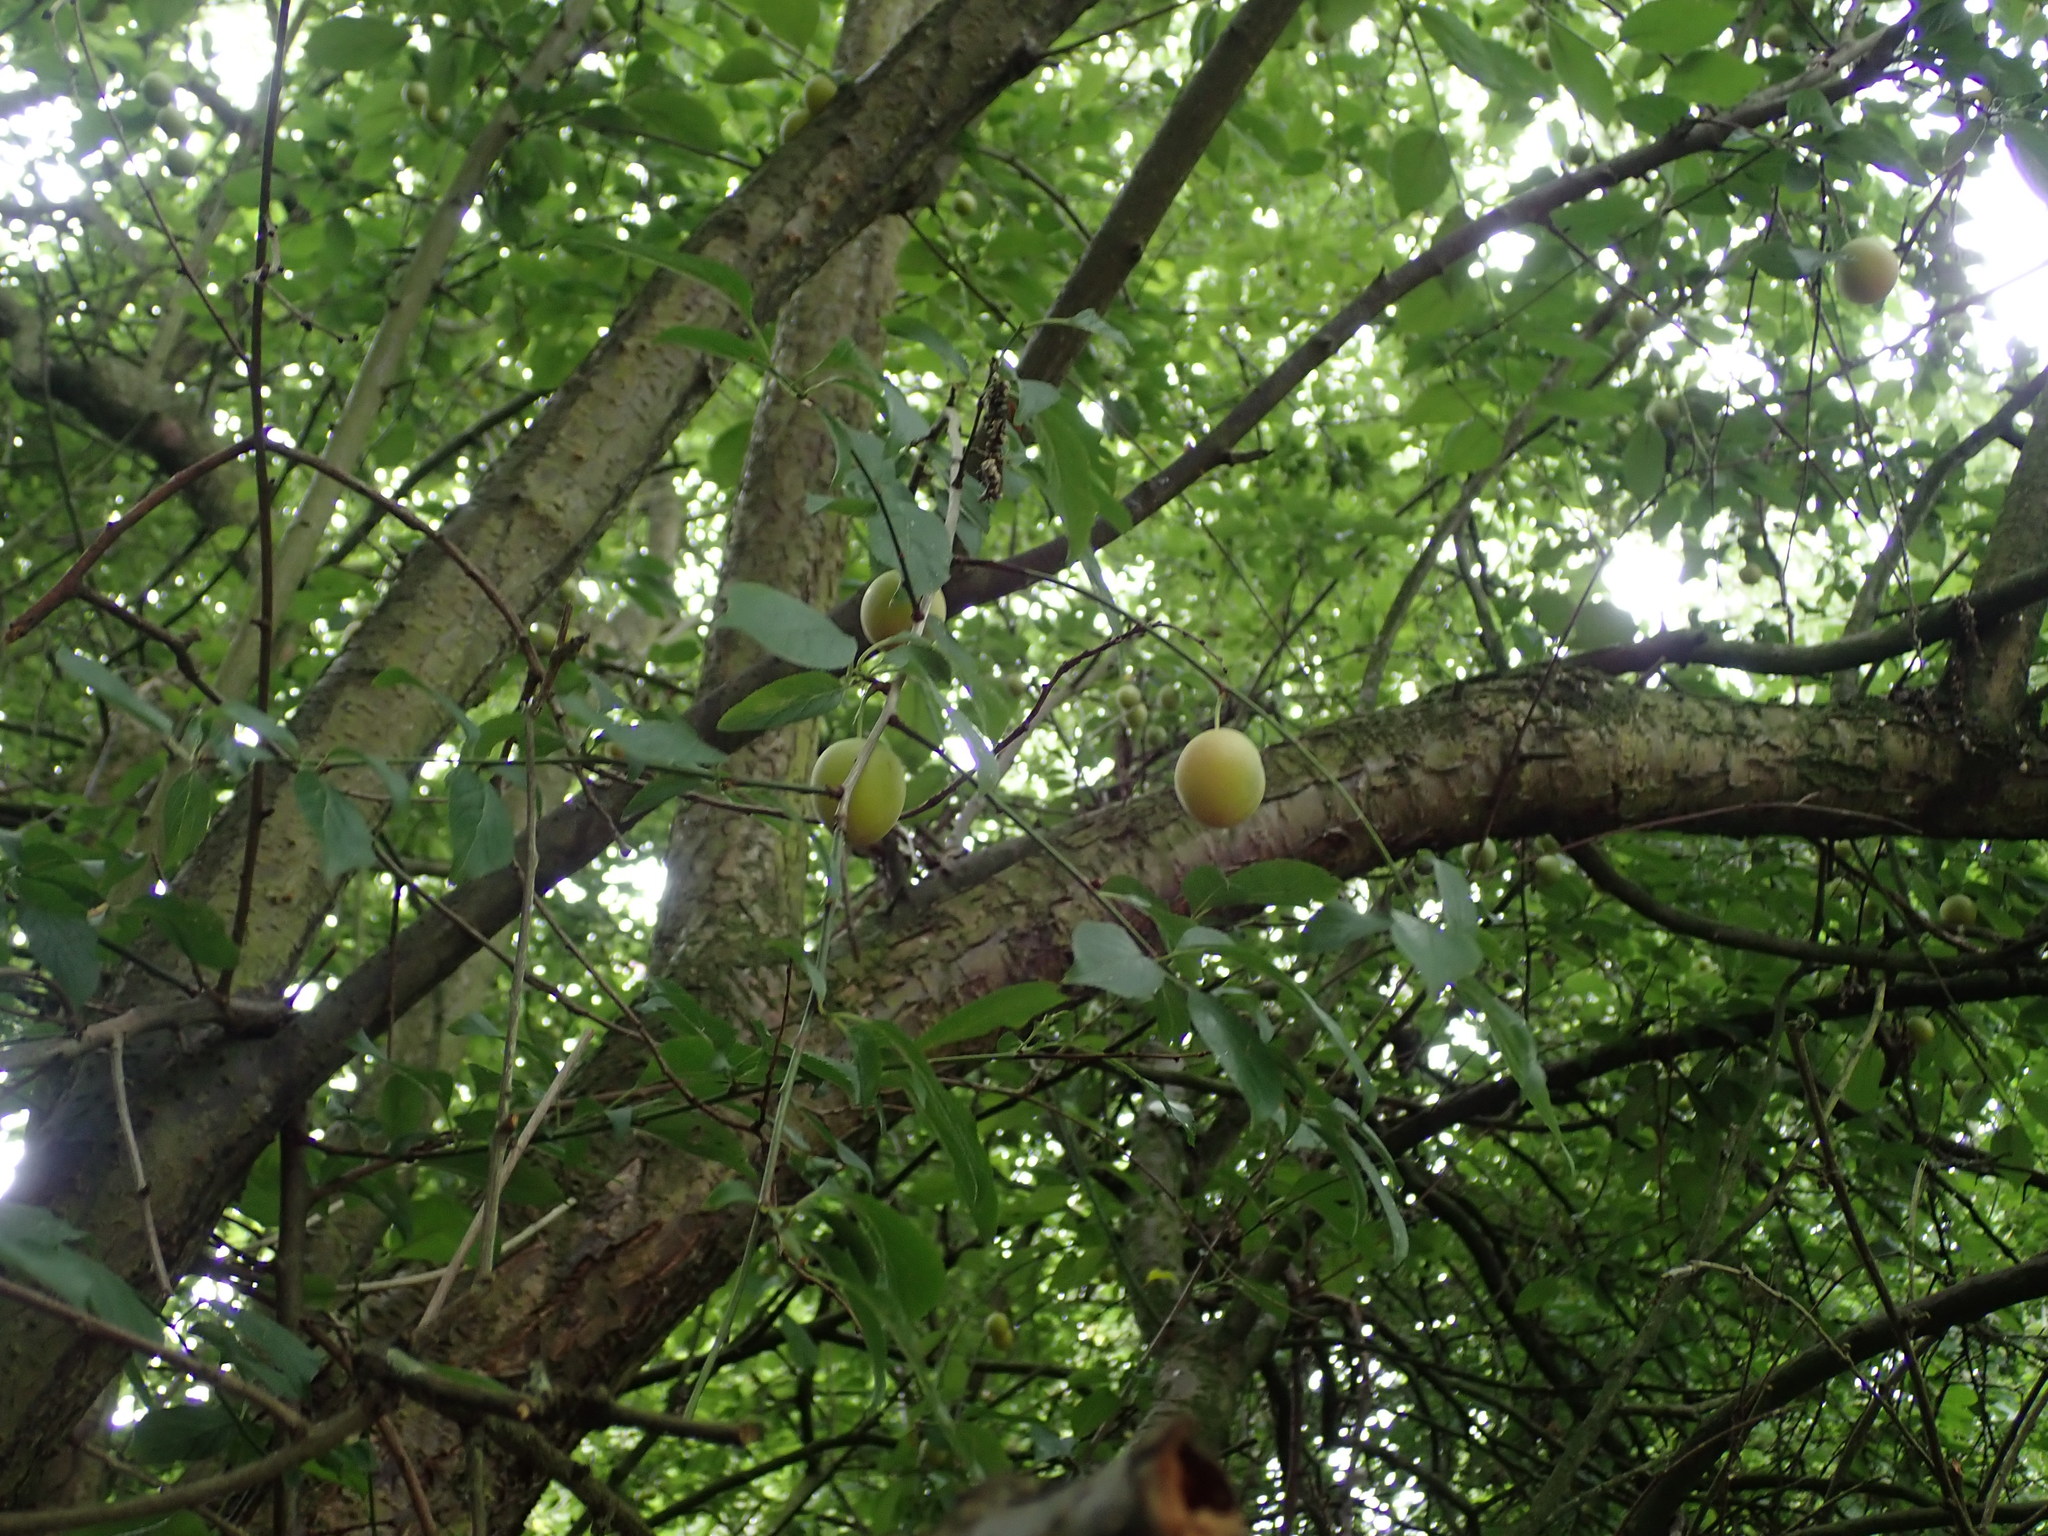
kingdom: Plantae
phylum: Tracheophyta
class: Magnoliopsida
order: Rosales
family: Rosaceae
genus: Prunus
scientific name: Prunus cerasifera
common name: Cherry plum
